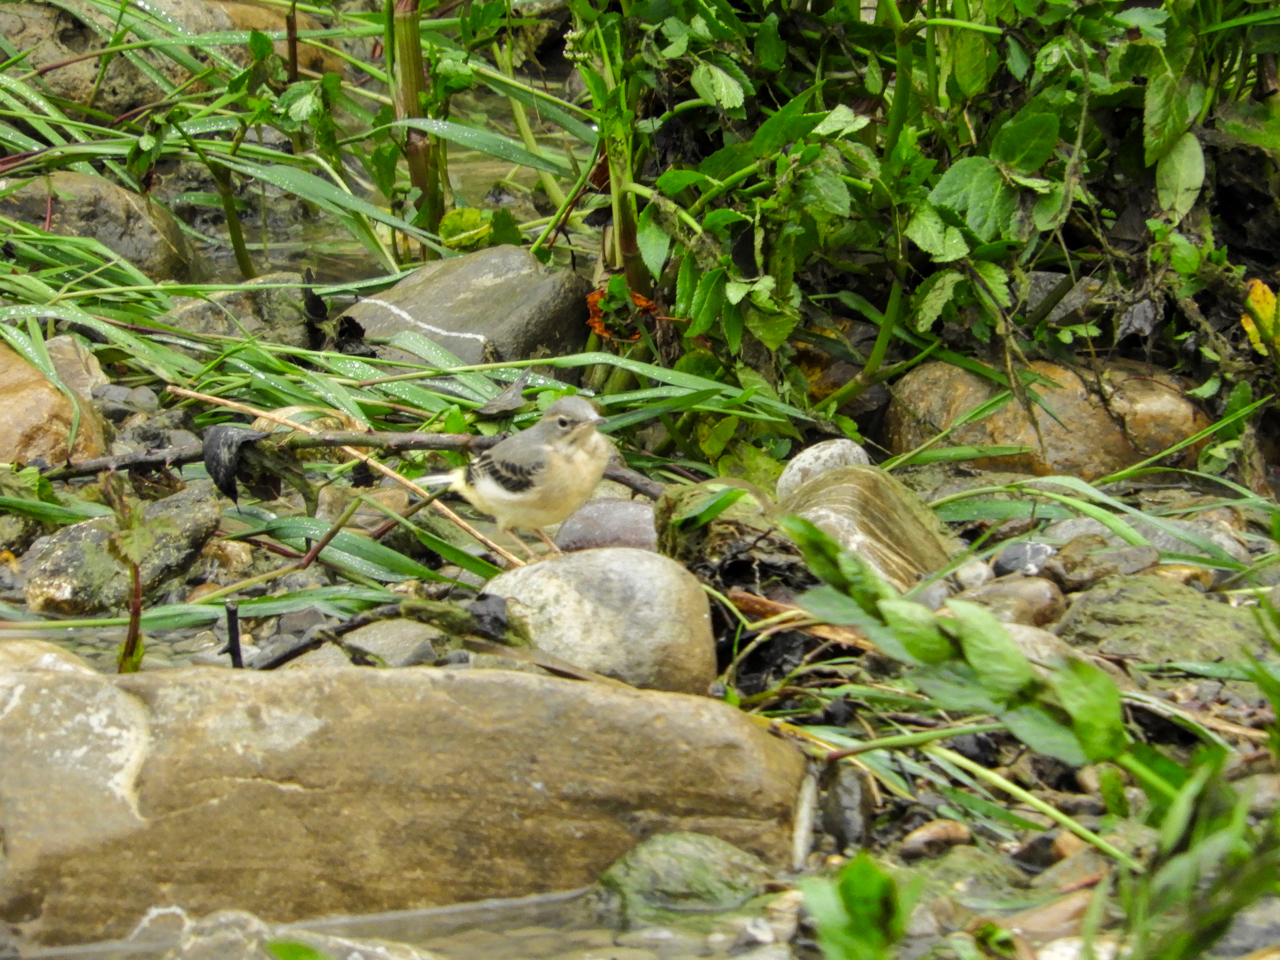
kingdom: Animalia
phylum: Chordata
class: Aves
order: Passeriformes
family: Motacillidae
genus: Motacilla
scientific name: Motacilla cinerea
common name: Grey wagtail
